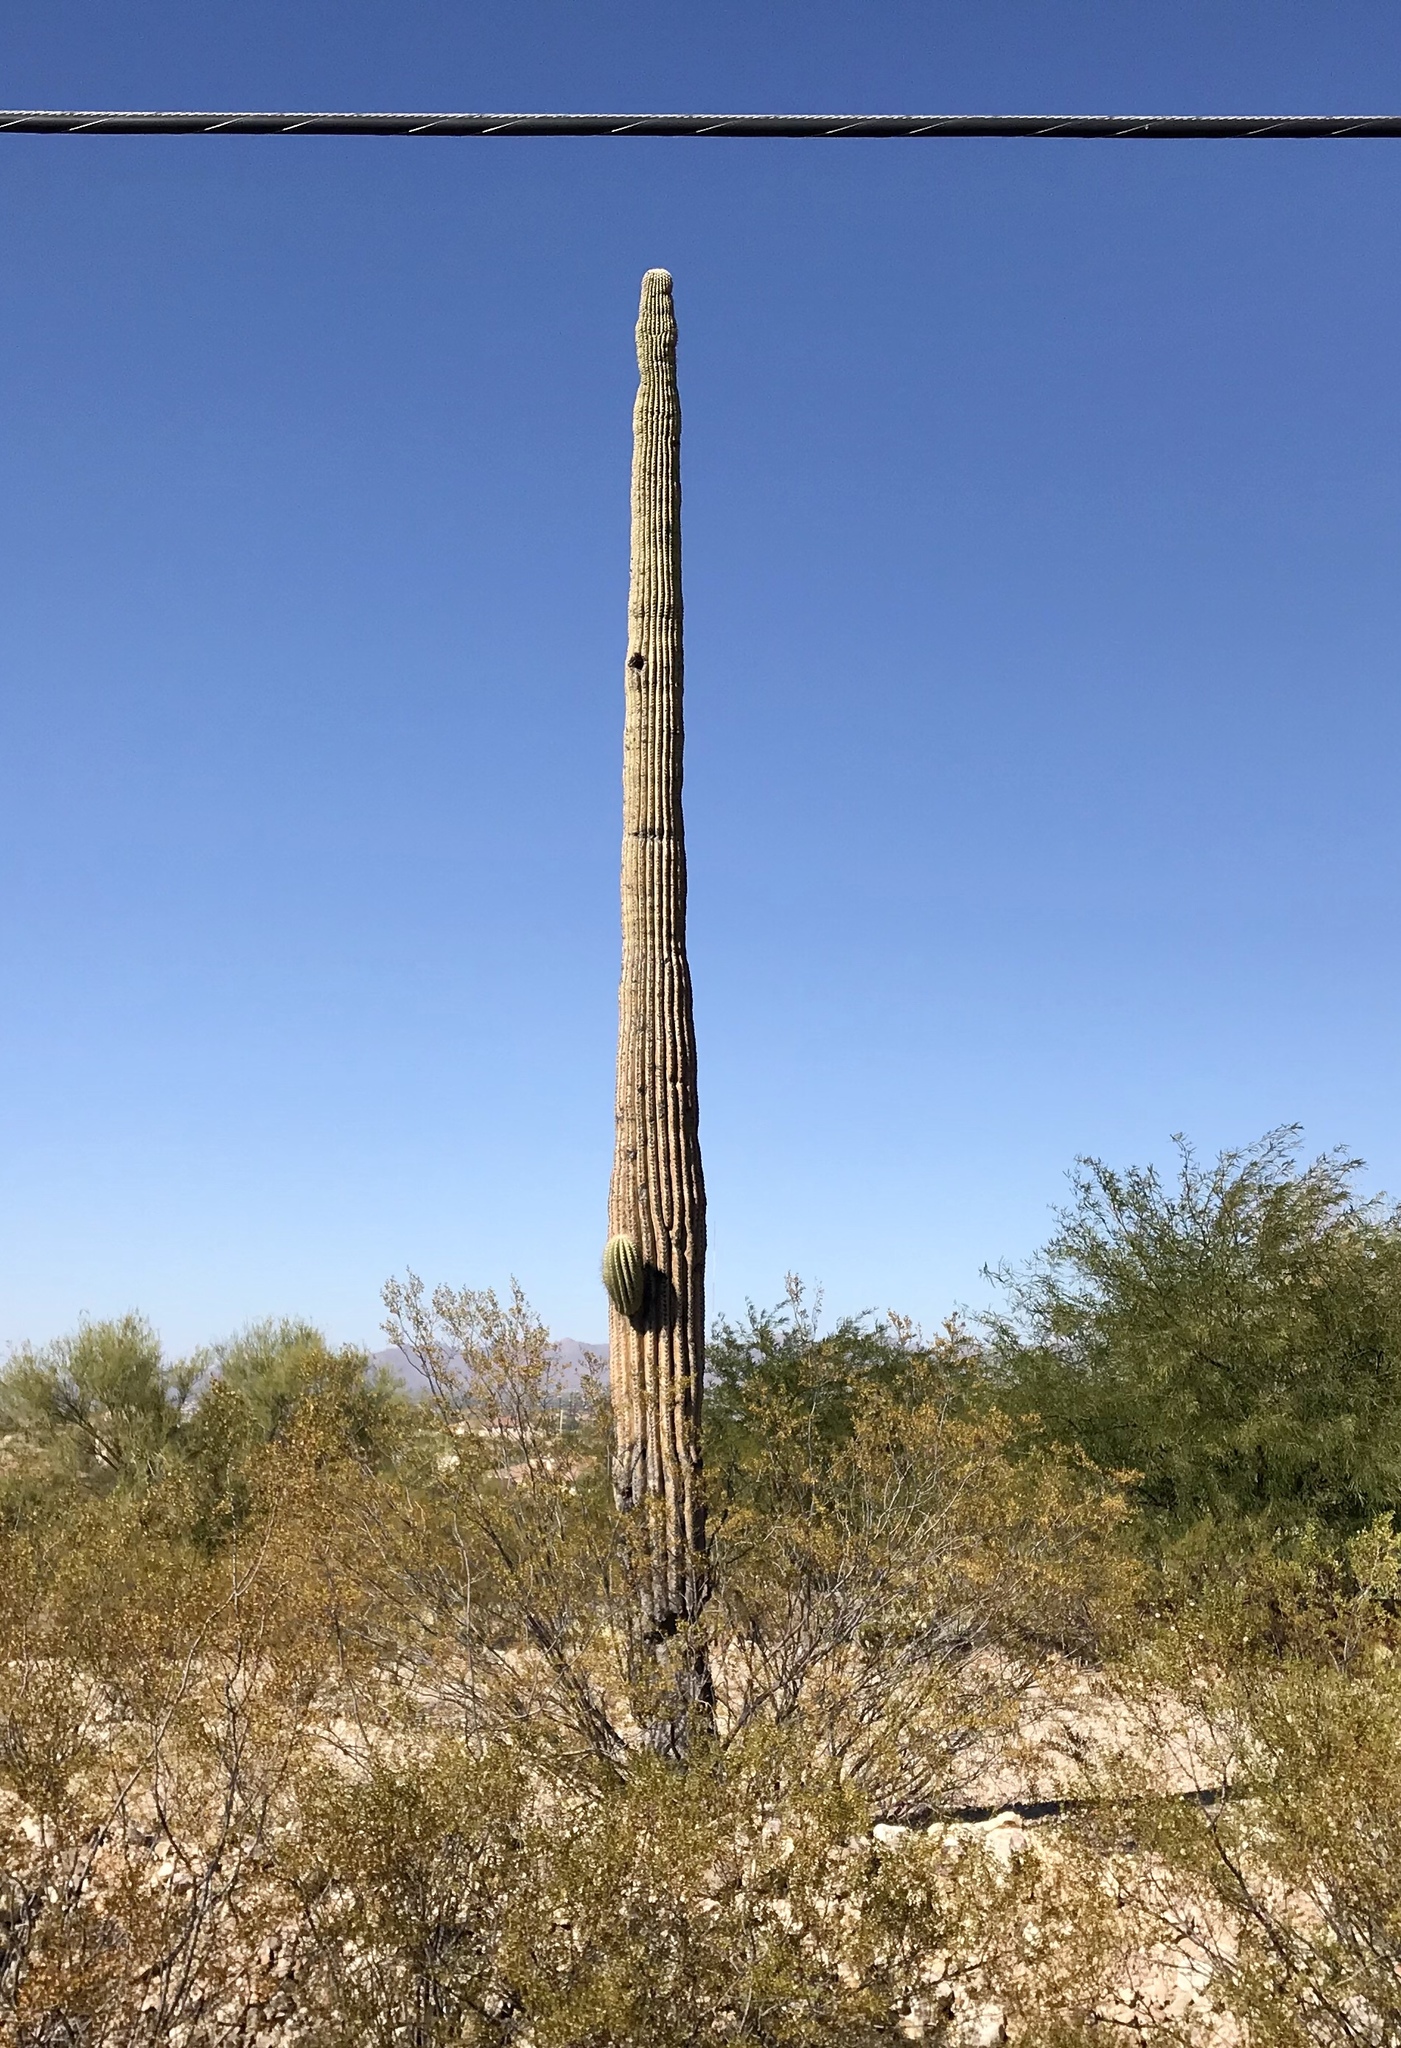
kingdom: Plantae
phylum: Tracheophyta
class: Magnoliopsida
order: Caryophyllales
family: Cactaceae
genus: Carnegiea
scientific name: Carnegiea gigantea
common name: Saguaro
